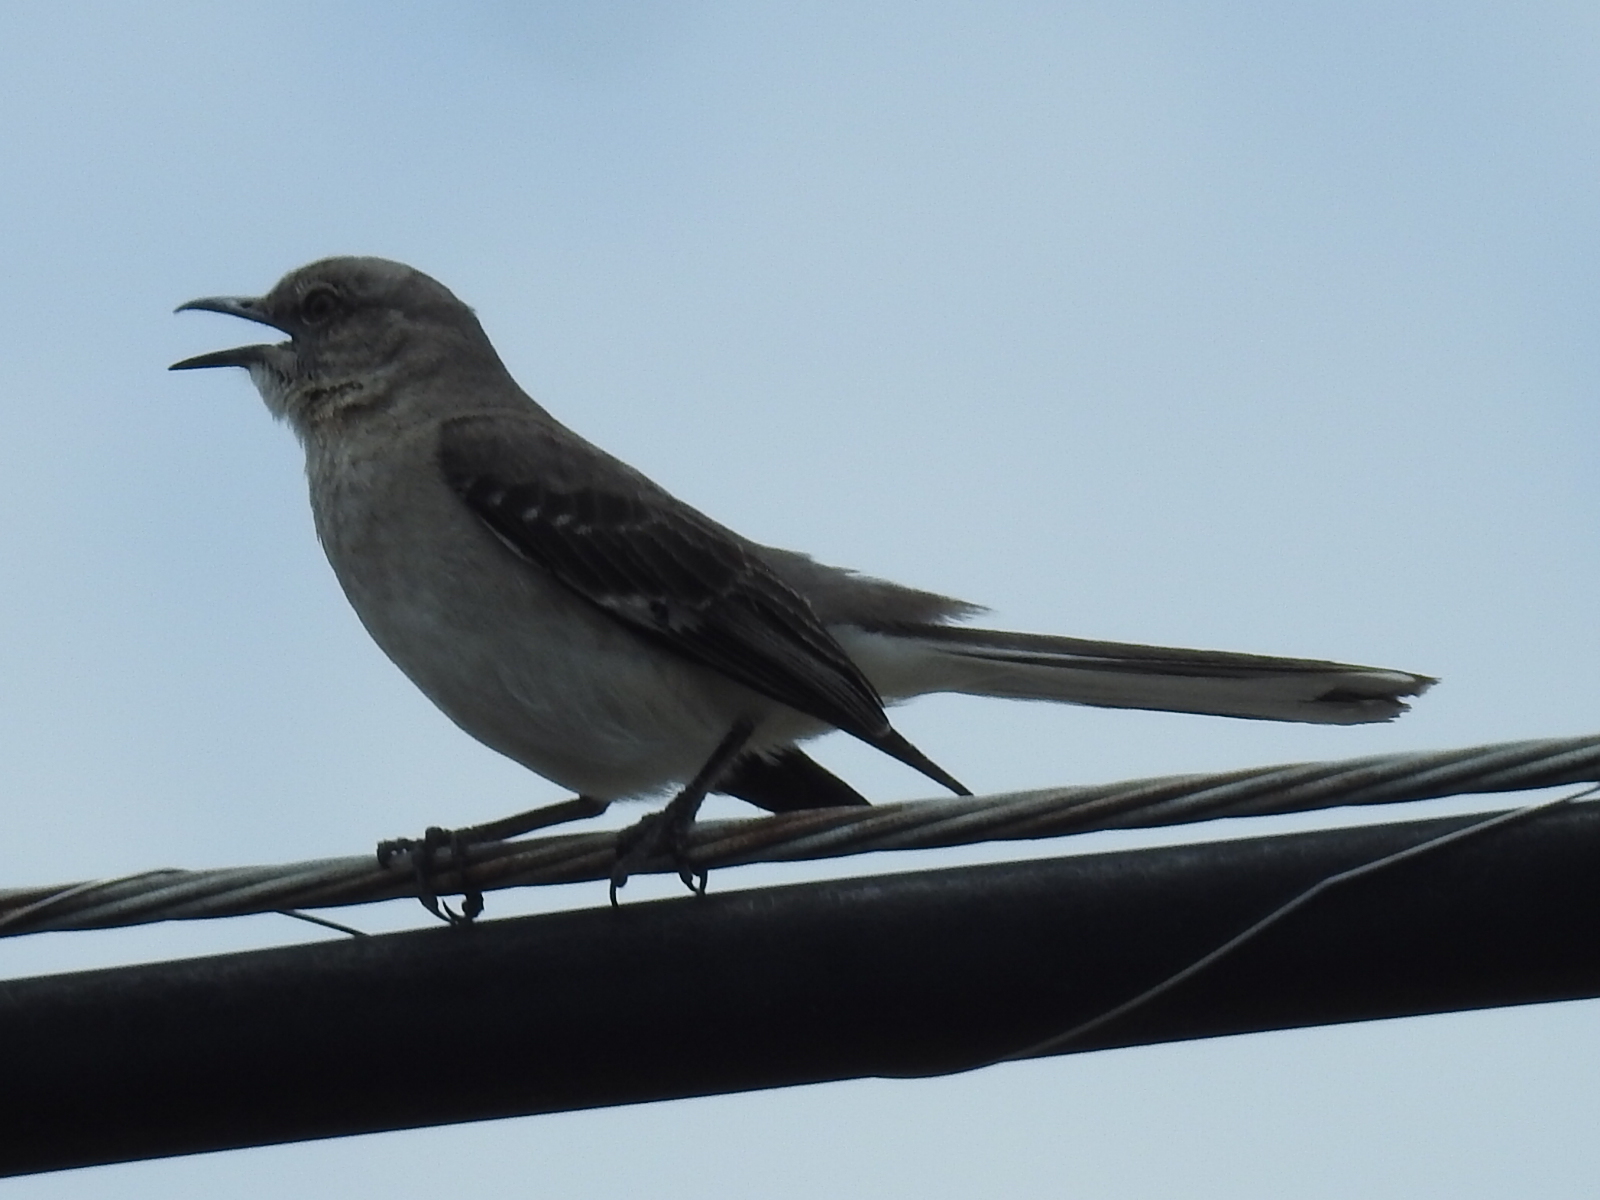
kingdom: Animalia
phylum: Chordata
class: Aves
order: Passeriformes
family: Mimidae
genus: Mimus
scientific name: Mimus polyglottos
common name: Northern mockingbird
